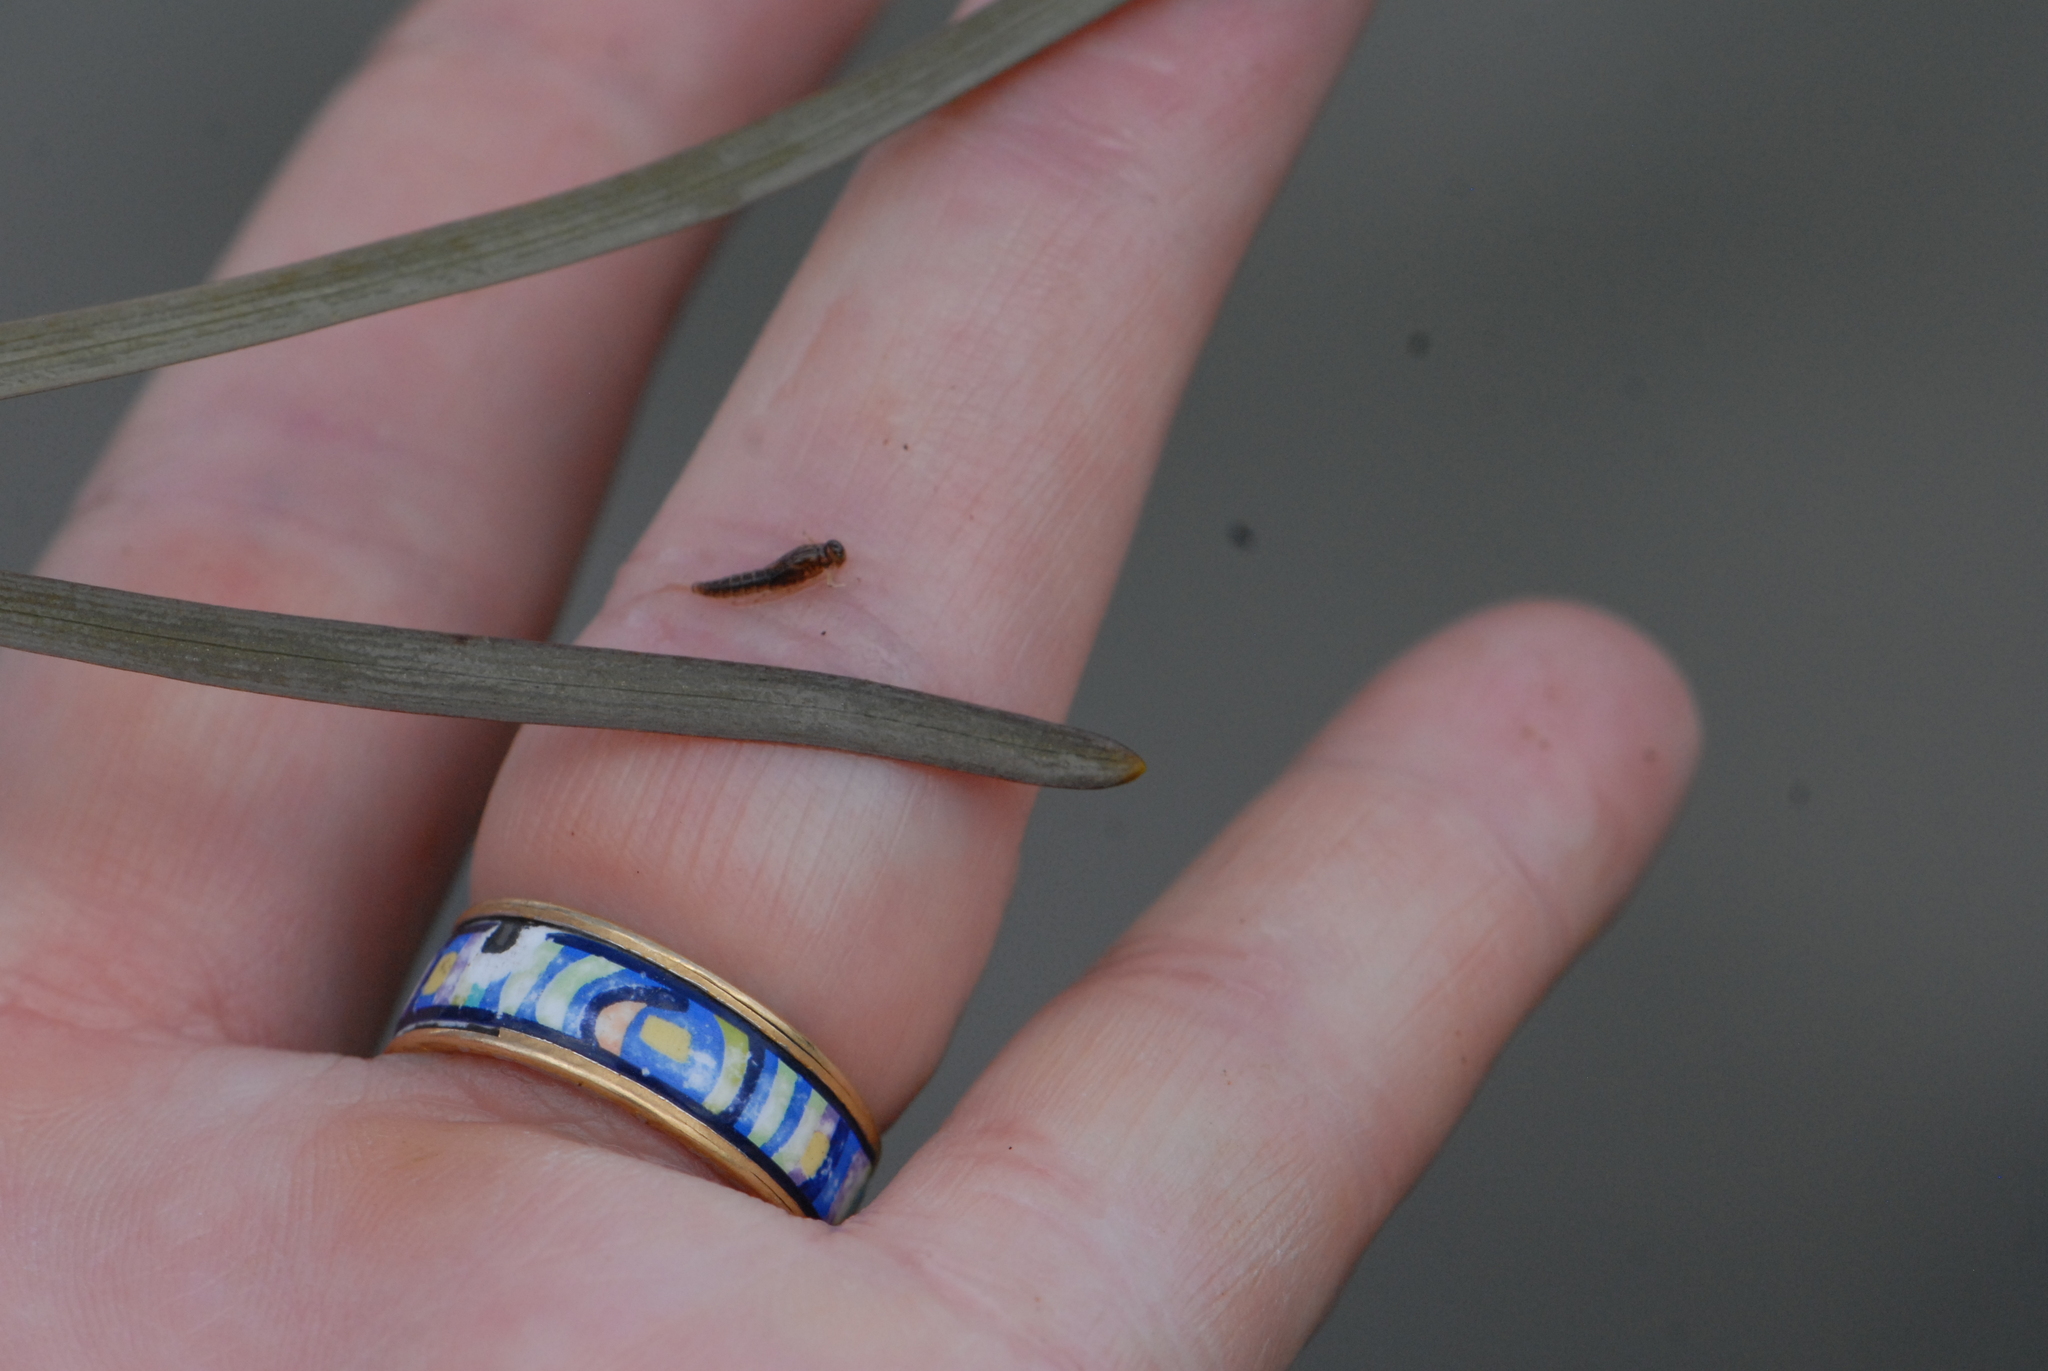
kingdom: Plantae
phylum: Tracheophyta
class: Liliopsida
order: Poales
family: Typhaceae
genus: Sparganium
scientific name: Sparganium emersum
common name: Unbranched bur-reed
